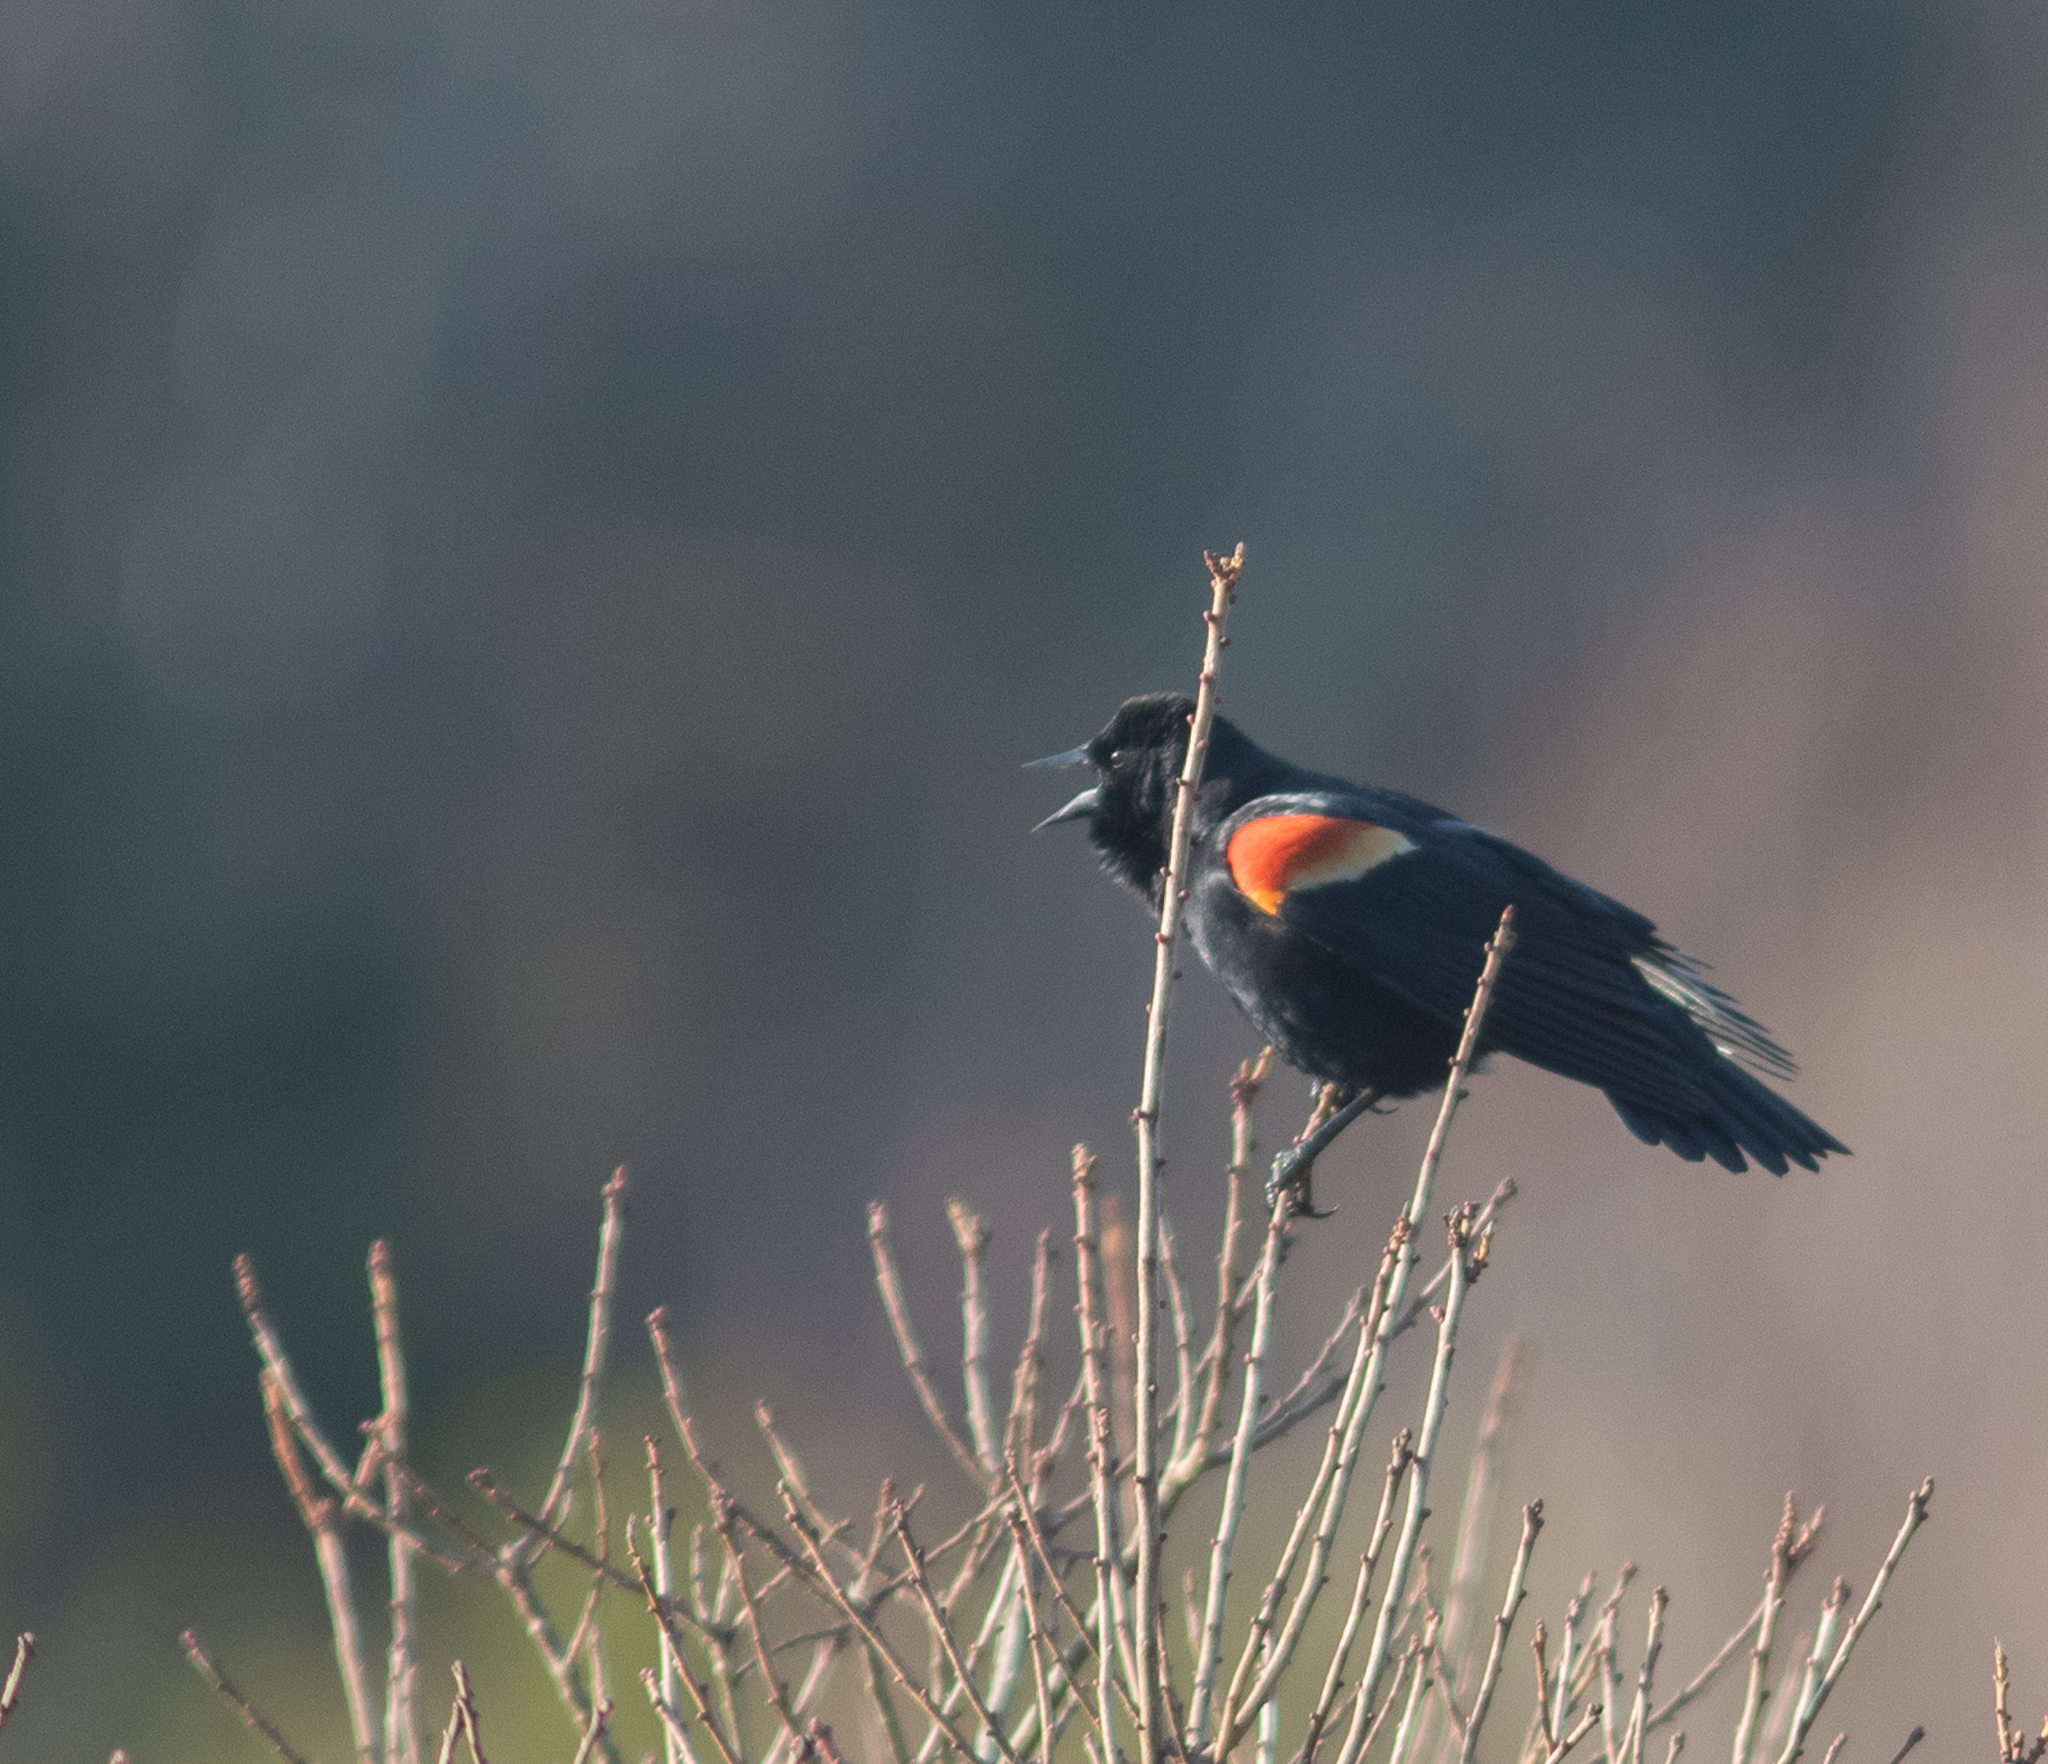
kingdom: Animalia
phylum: Chordata
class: Aves
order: Passeriformes
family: Icteridae
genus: Agelaius
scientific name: Agelaius phoeniceus
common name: Red-winged blackbird
